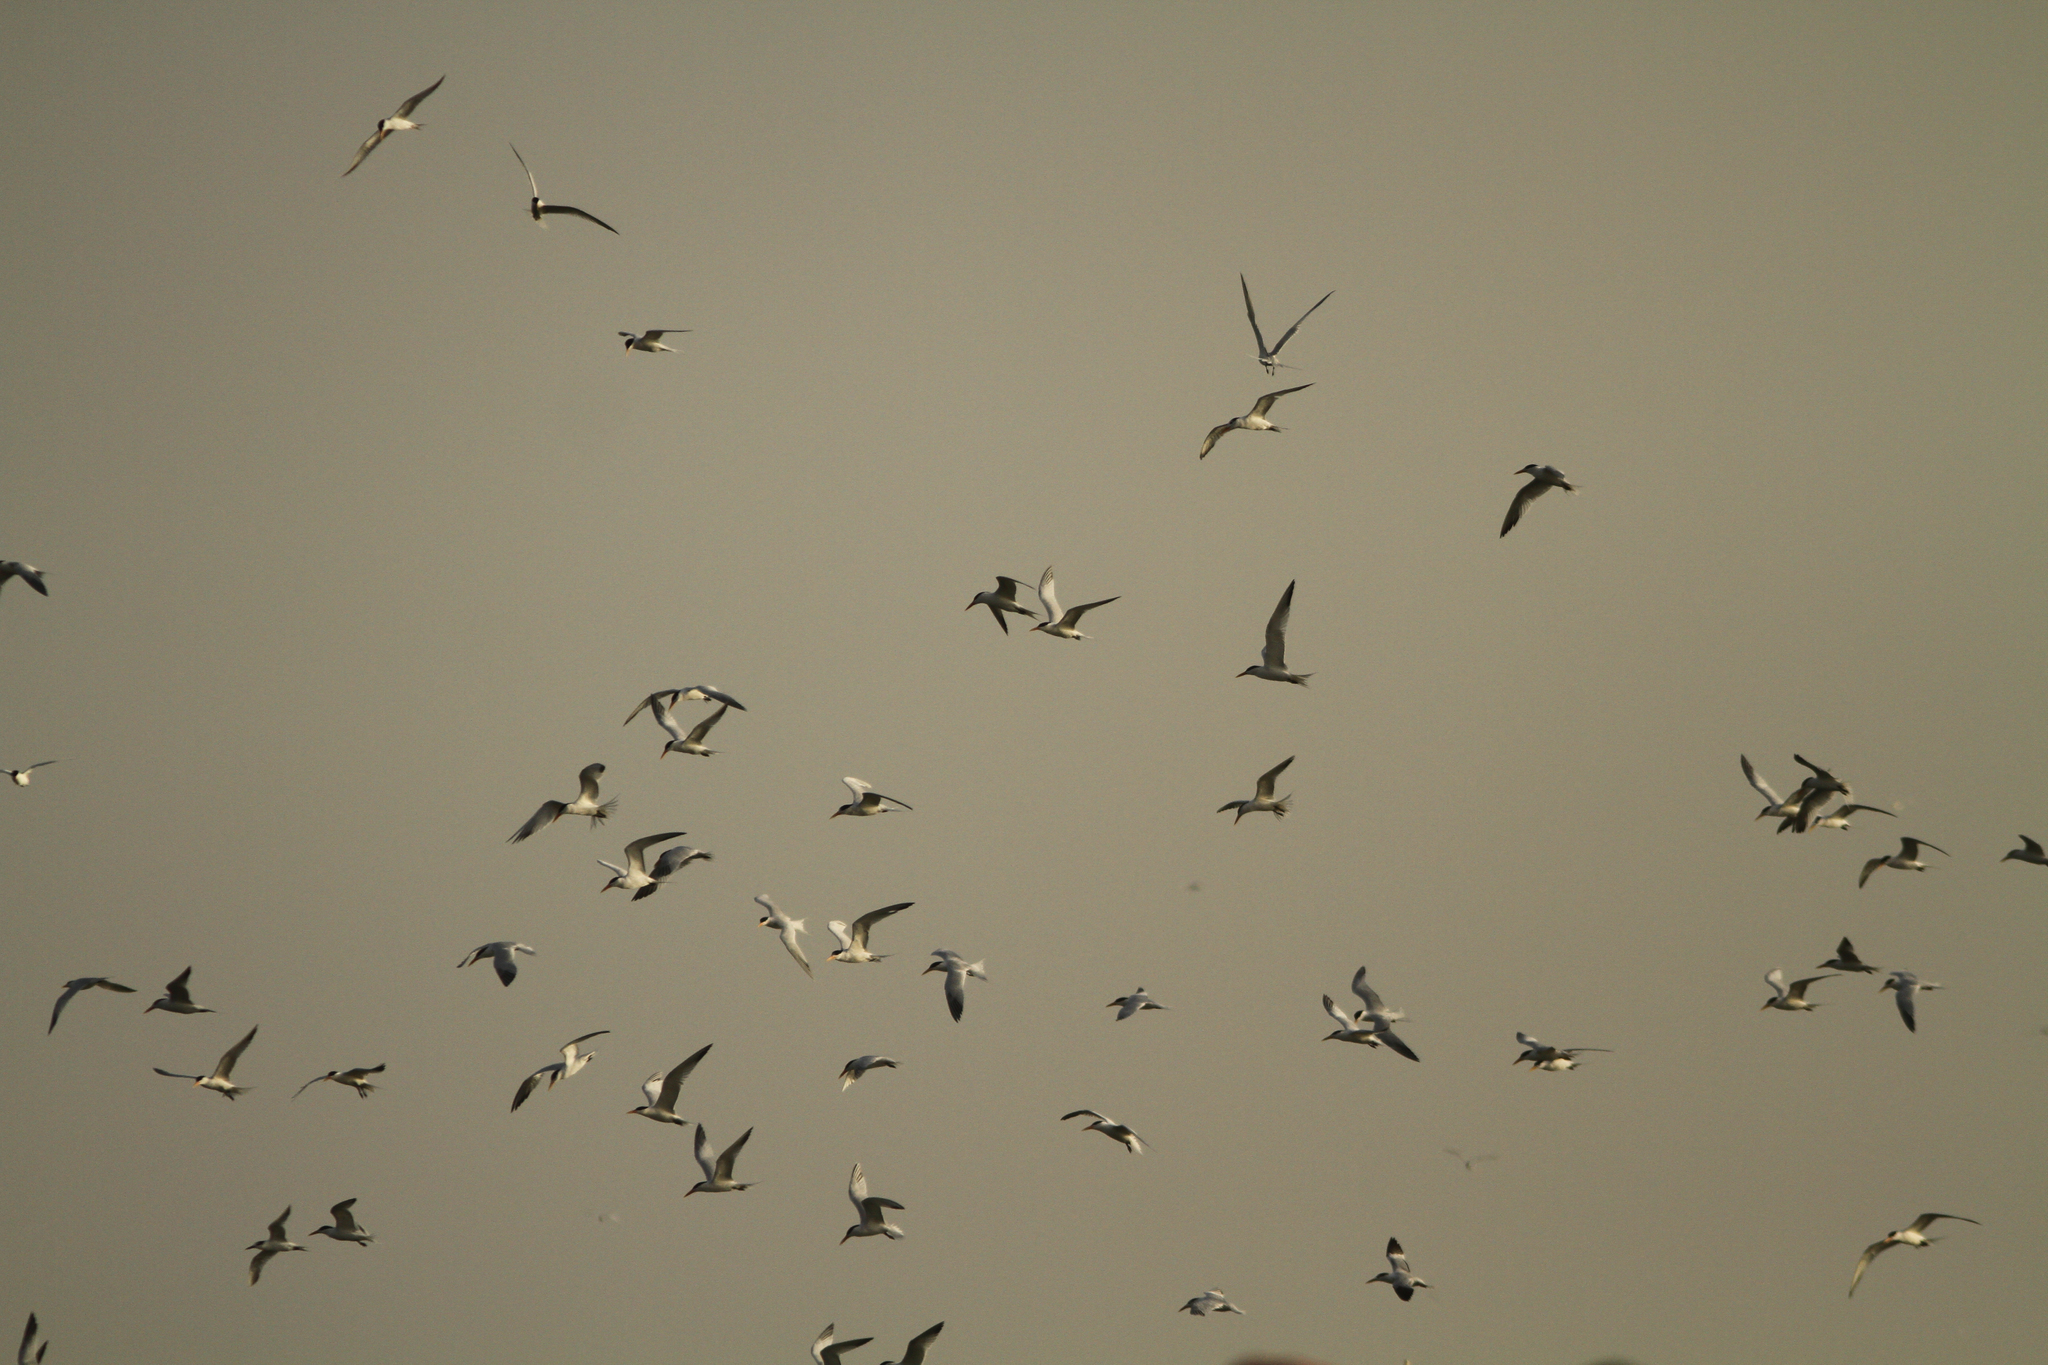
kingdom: Animalia
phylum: Chordata
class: Aves
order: Charadriiformes
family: Laridae
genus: Thalasseus
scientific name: Thalasseus albididorsalis
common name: West african crested tern
